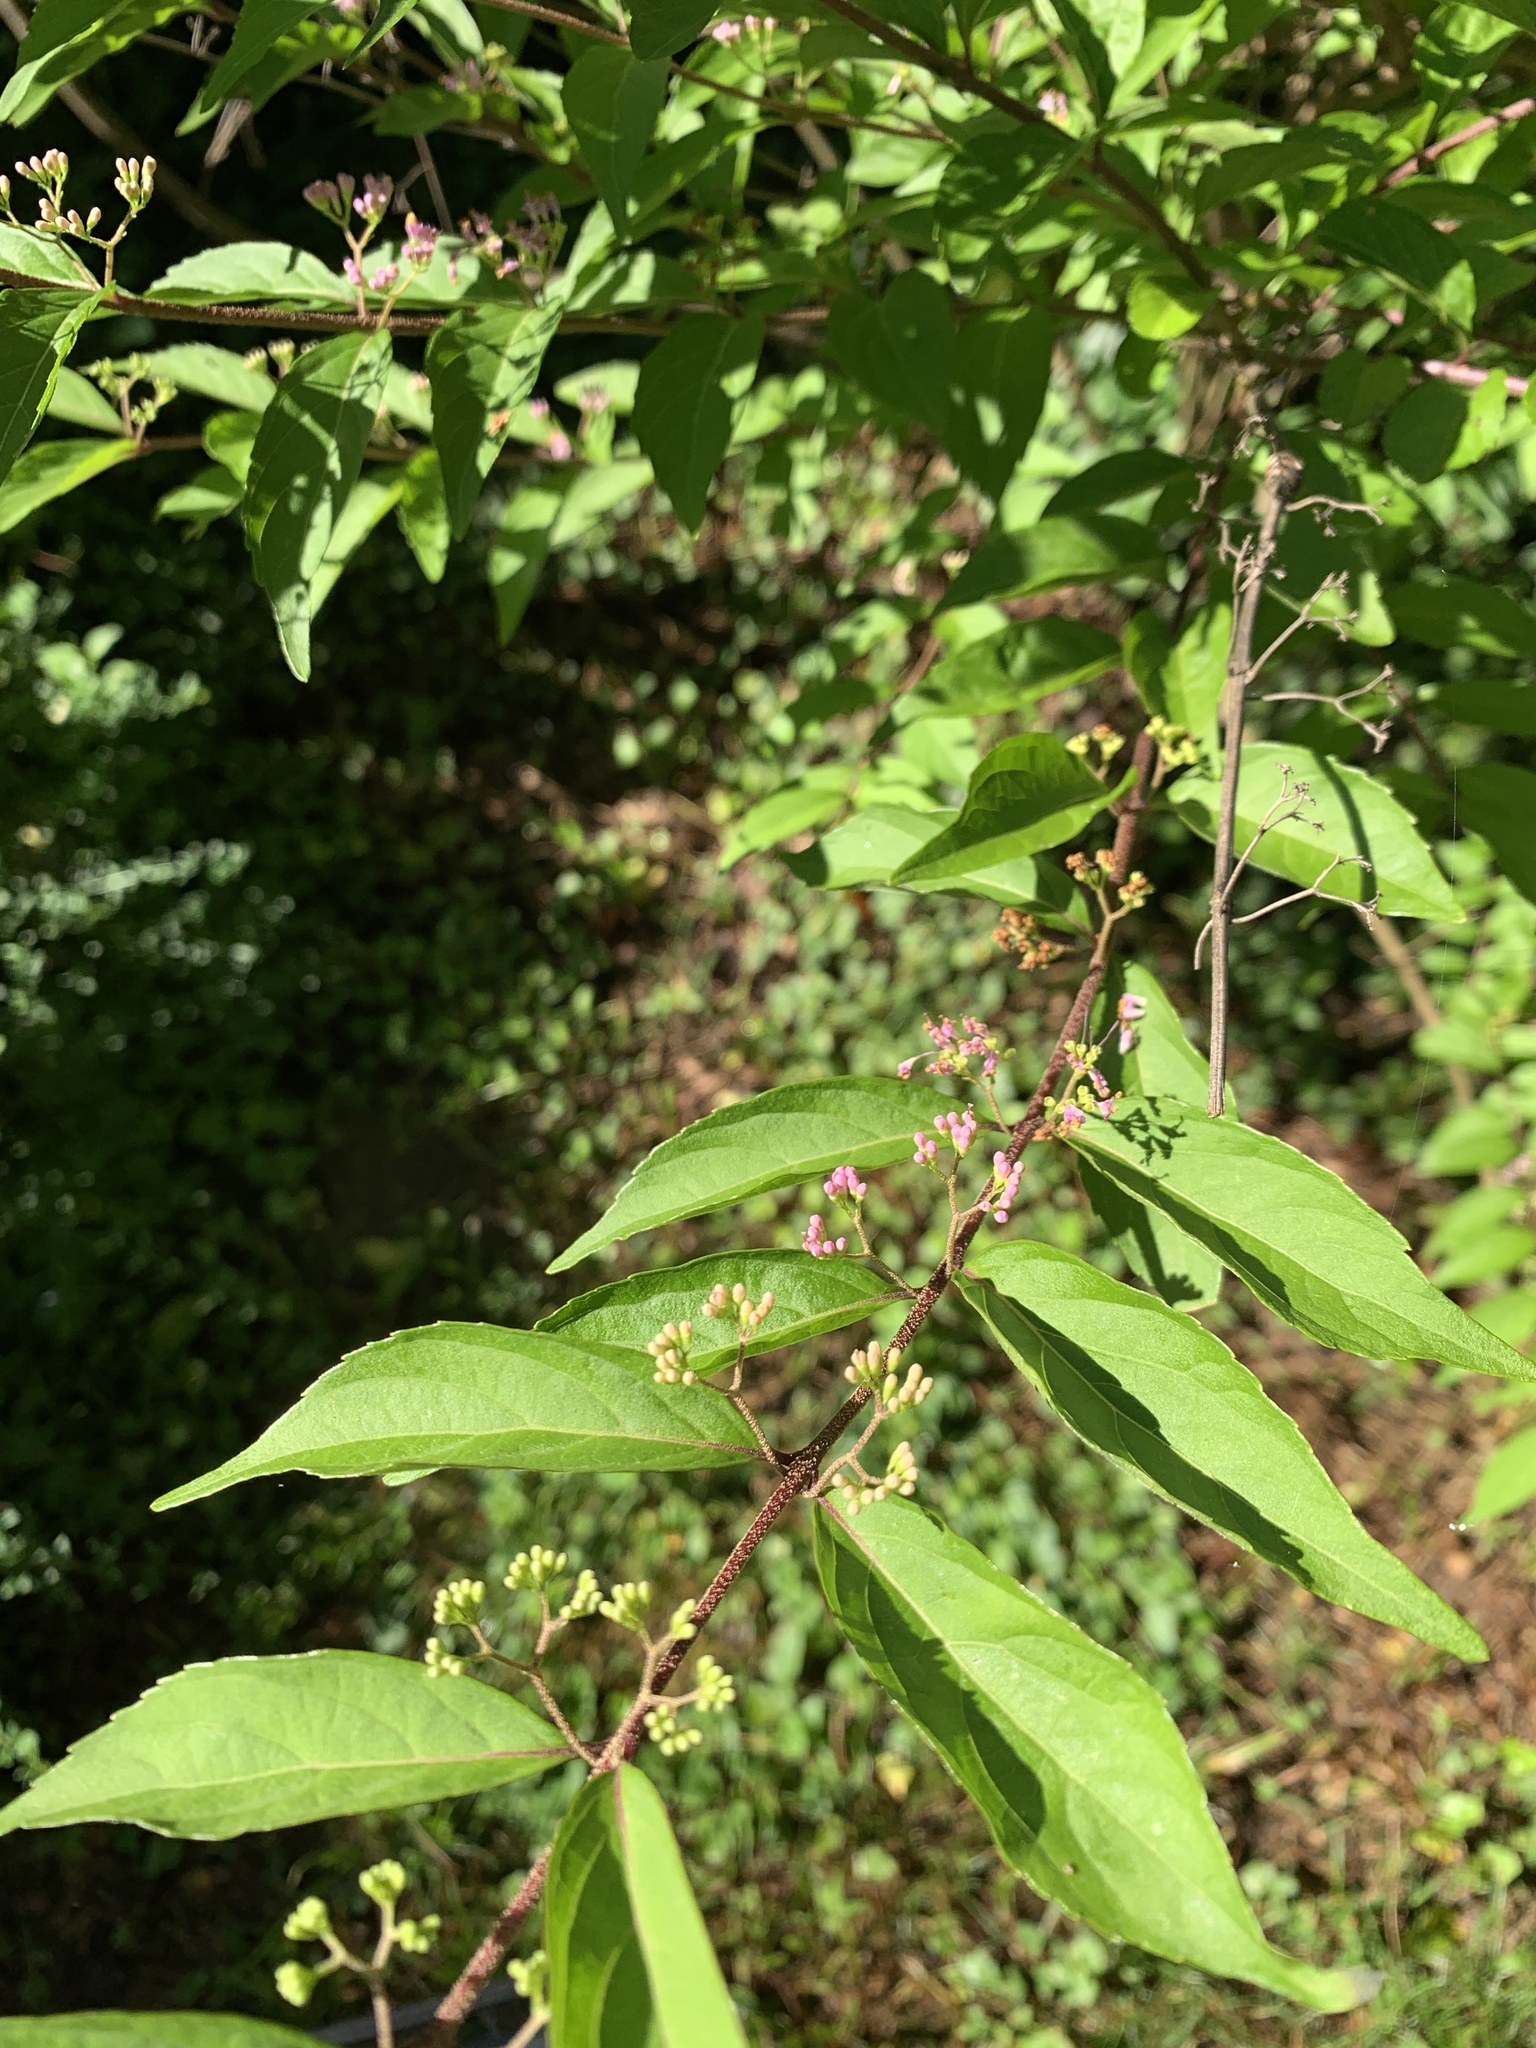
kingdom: Plantae
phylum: Tracheophyta
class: Magnoliopsida
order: Lamiales
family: Lamiaceae
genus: Callicarpa
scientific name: Callicarpa dichotoma
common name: Purple beauty-berry
